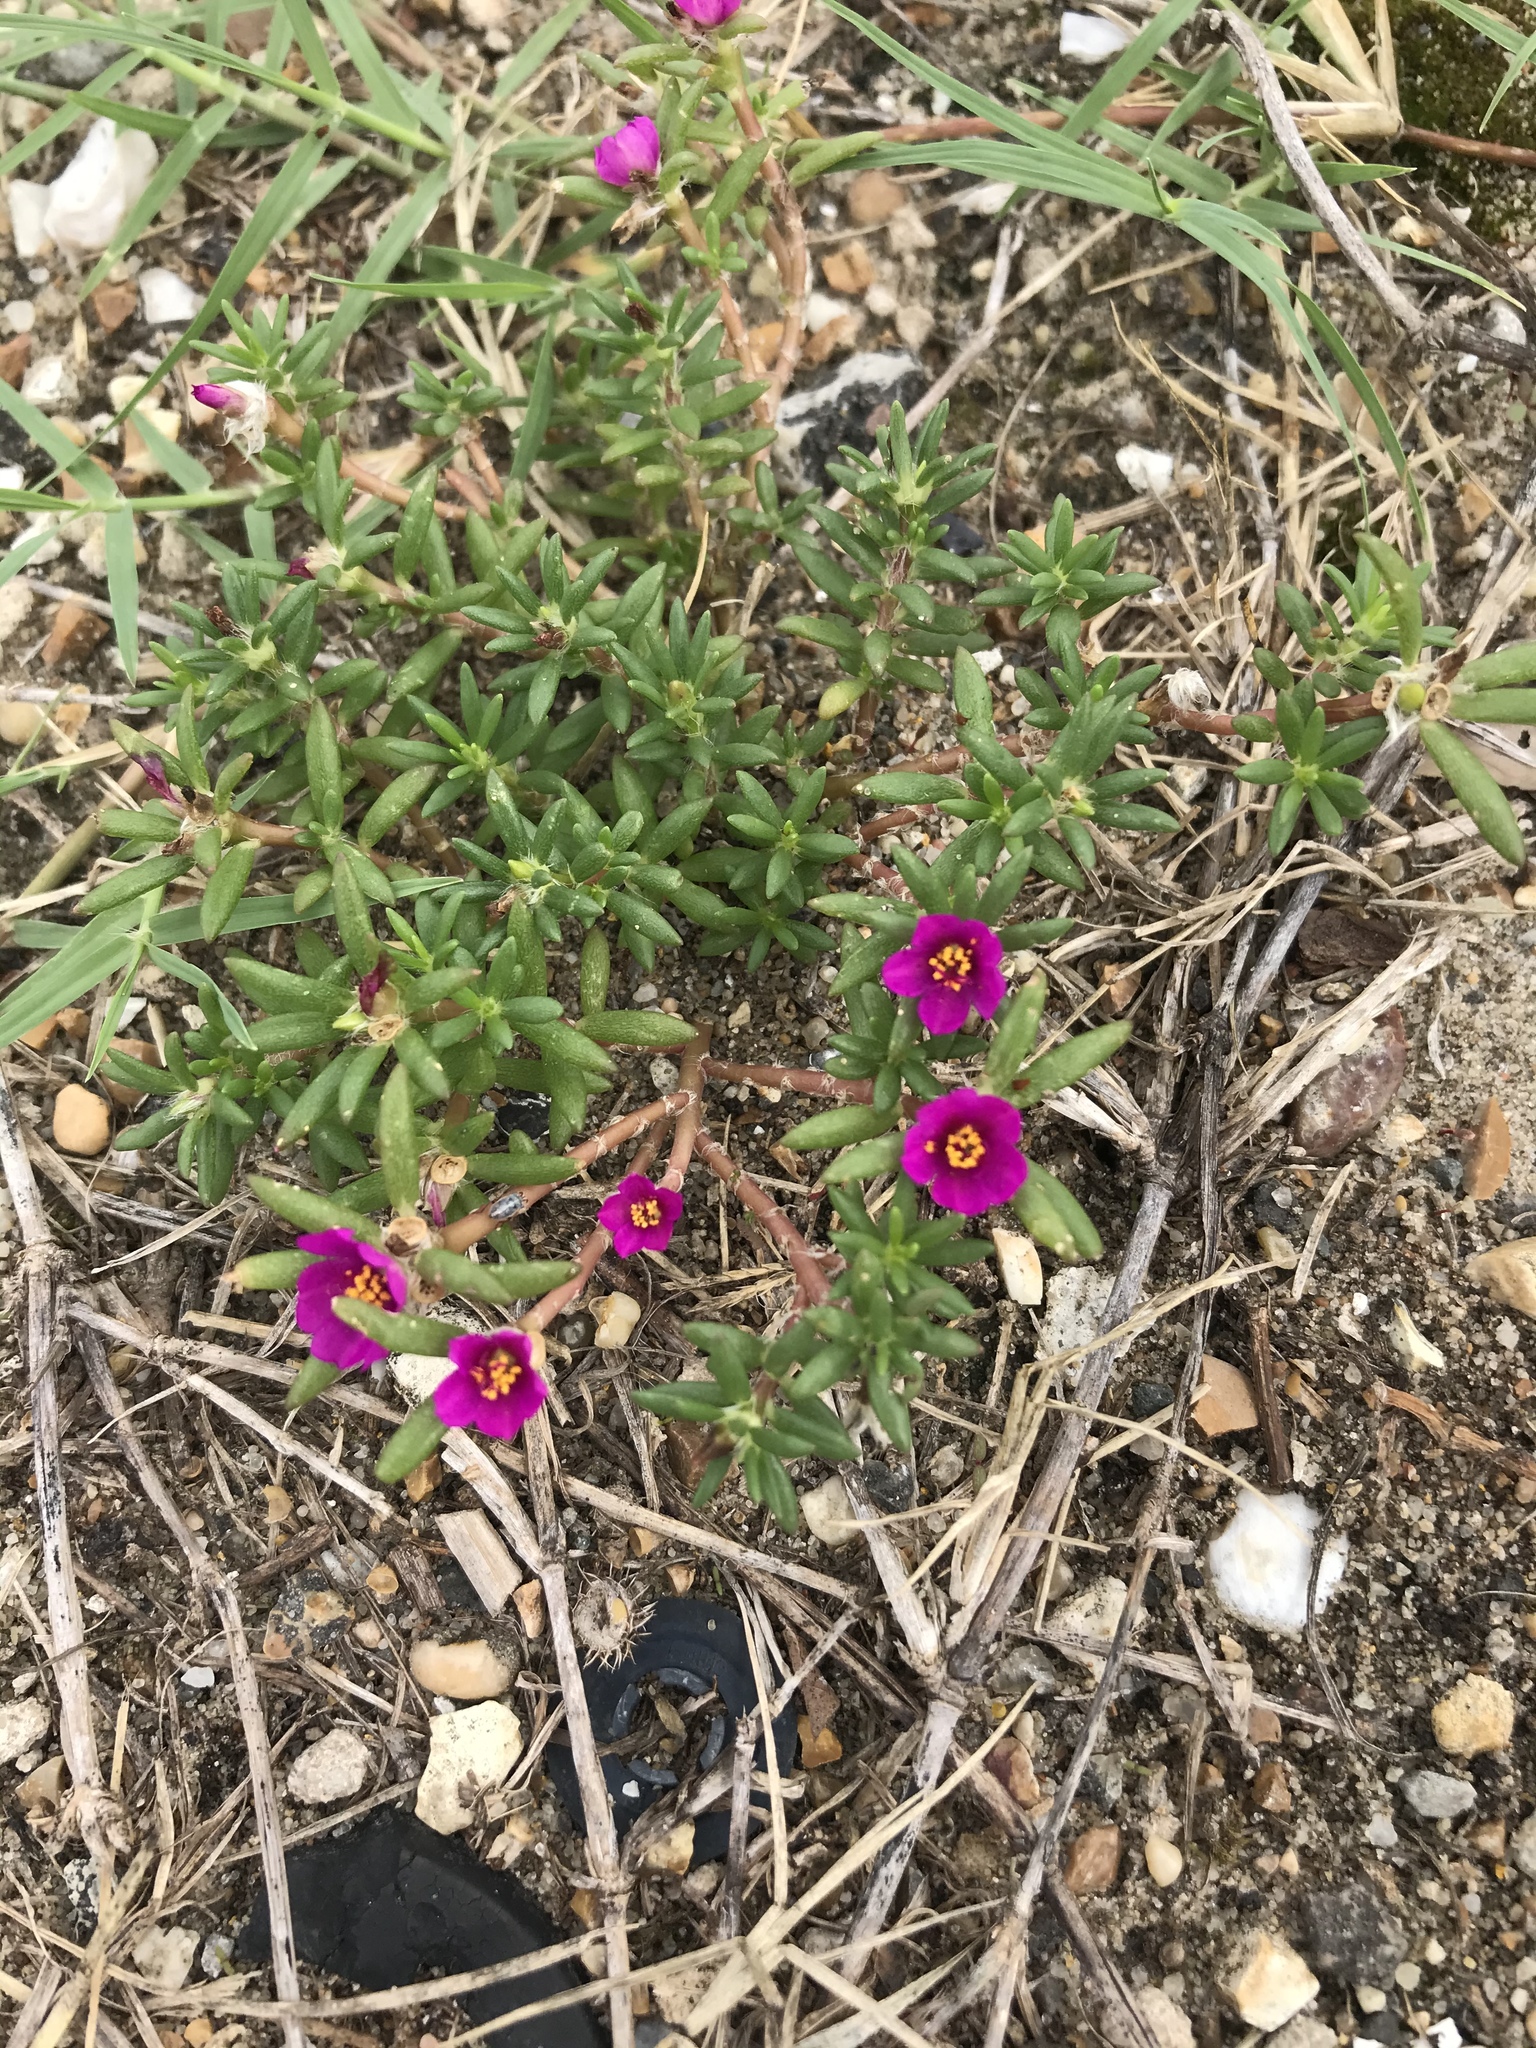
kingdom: Plantae
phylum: Tracheophyta
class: Magnoliopsida
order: Caryophyllales
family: Portulacaceae
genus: Portulaca
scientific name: Portulaca pilosa
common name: Kiss me quick
